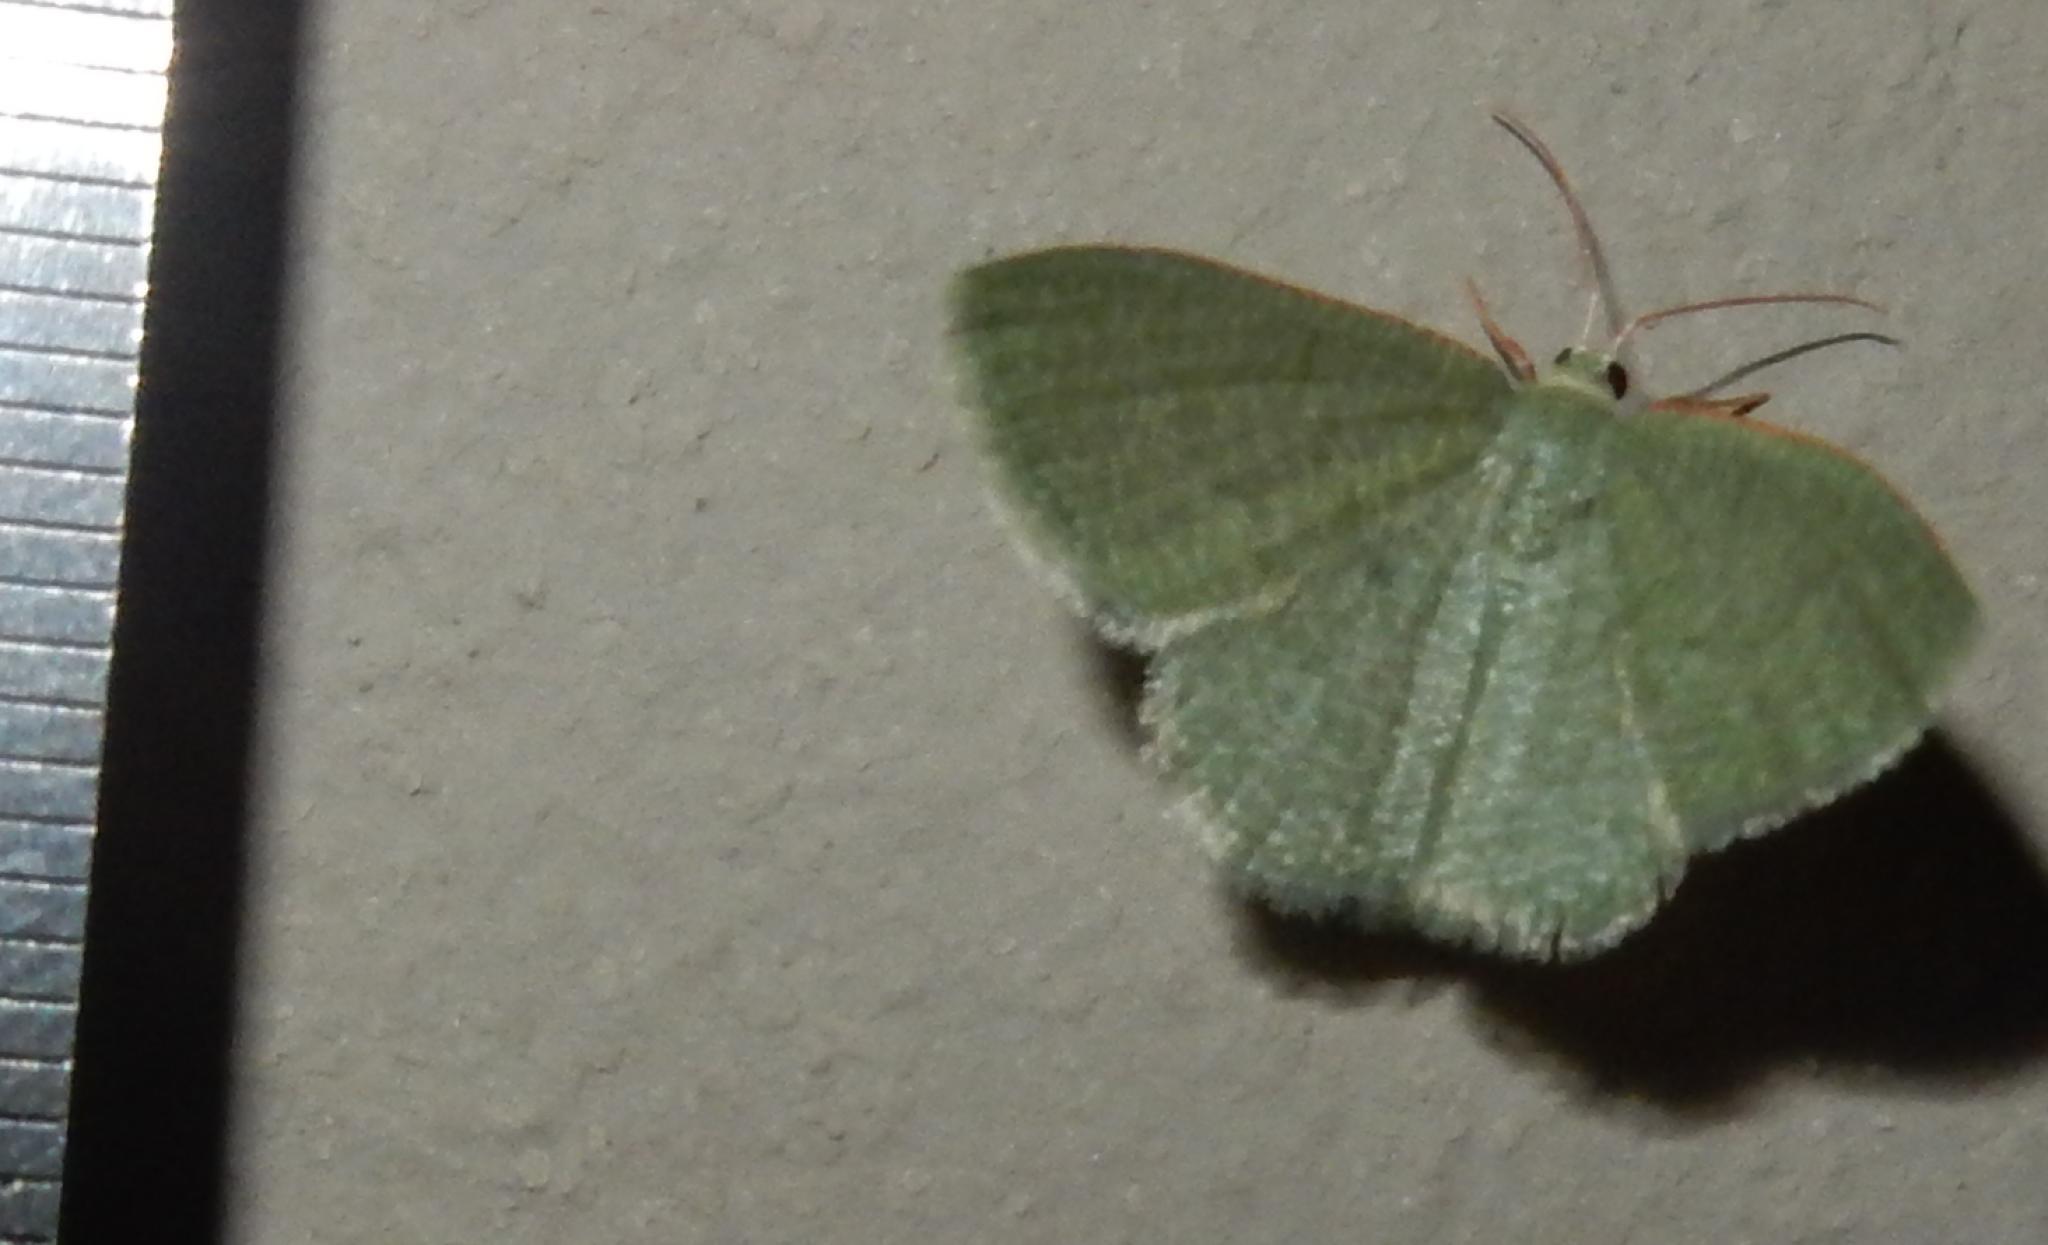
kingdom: Animalia
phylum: Arthropoda
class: Insecta
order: Lepidoptera
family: Geometridae
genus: Chlorissa
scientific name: Chlorissa albistrigulata
